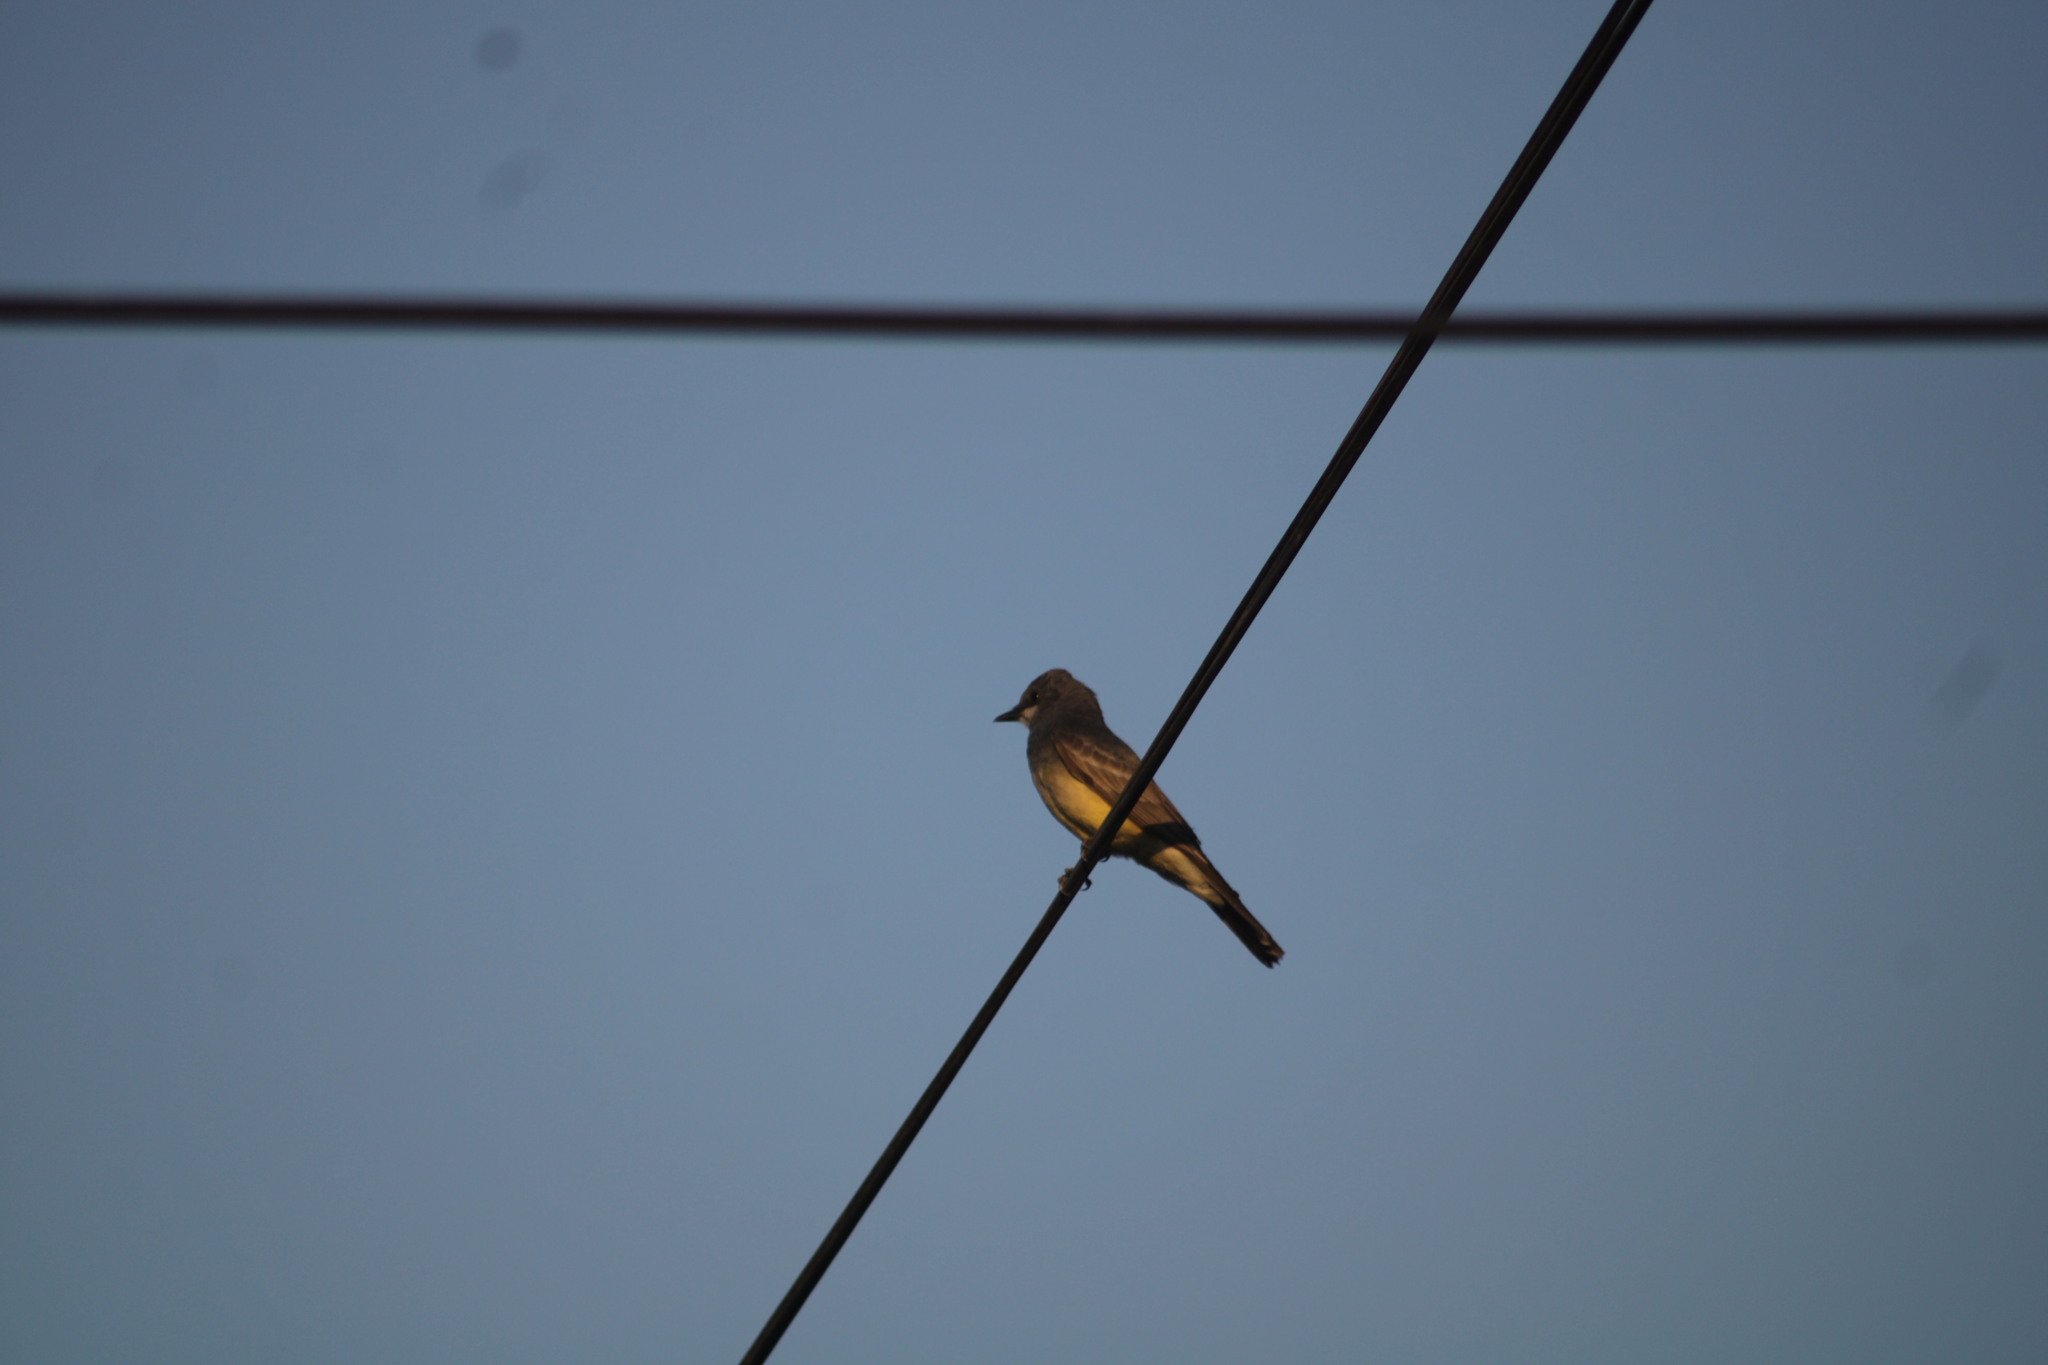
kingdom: Animalia
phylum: Chordata
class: Aves
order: Passeriformes
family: Tyrannidae
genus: Tyrannus
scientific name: Tyrannus vociferans
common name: Cassin's kingbird
